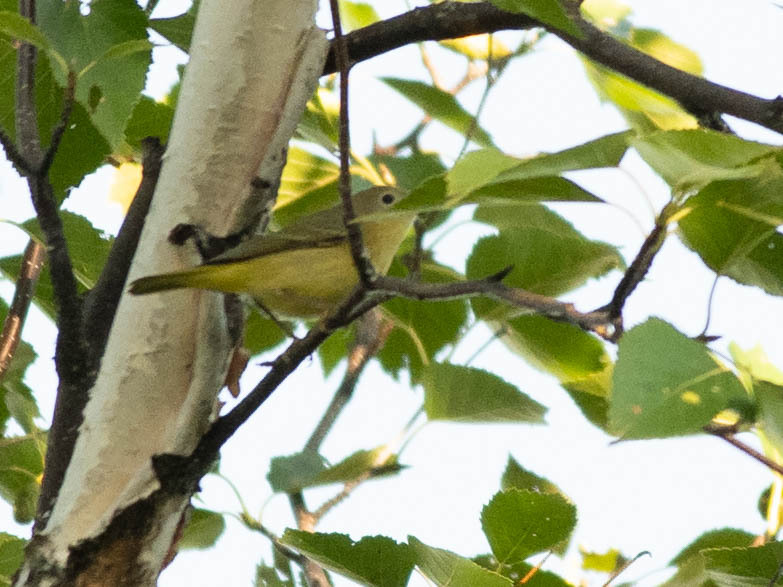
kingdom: Animalia
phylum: Chordata
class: Aves
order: Passeriformes
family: Parulidae
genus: Setophaga
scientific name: Setophaga petechia
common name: Yellow warbler
